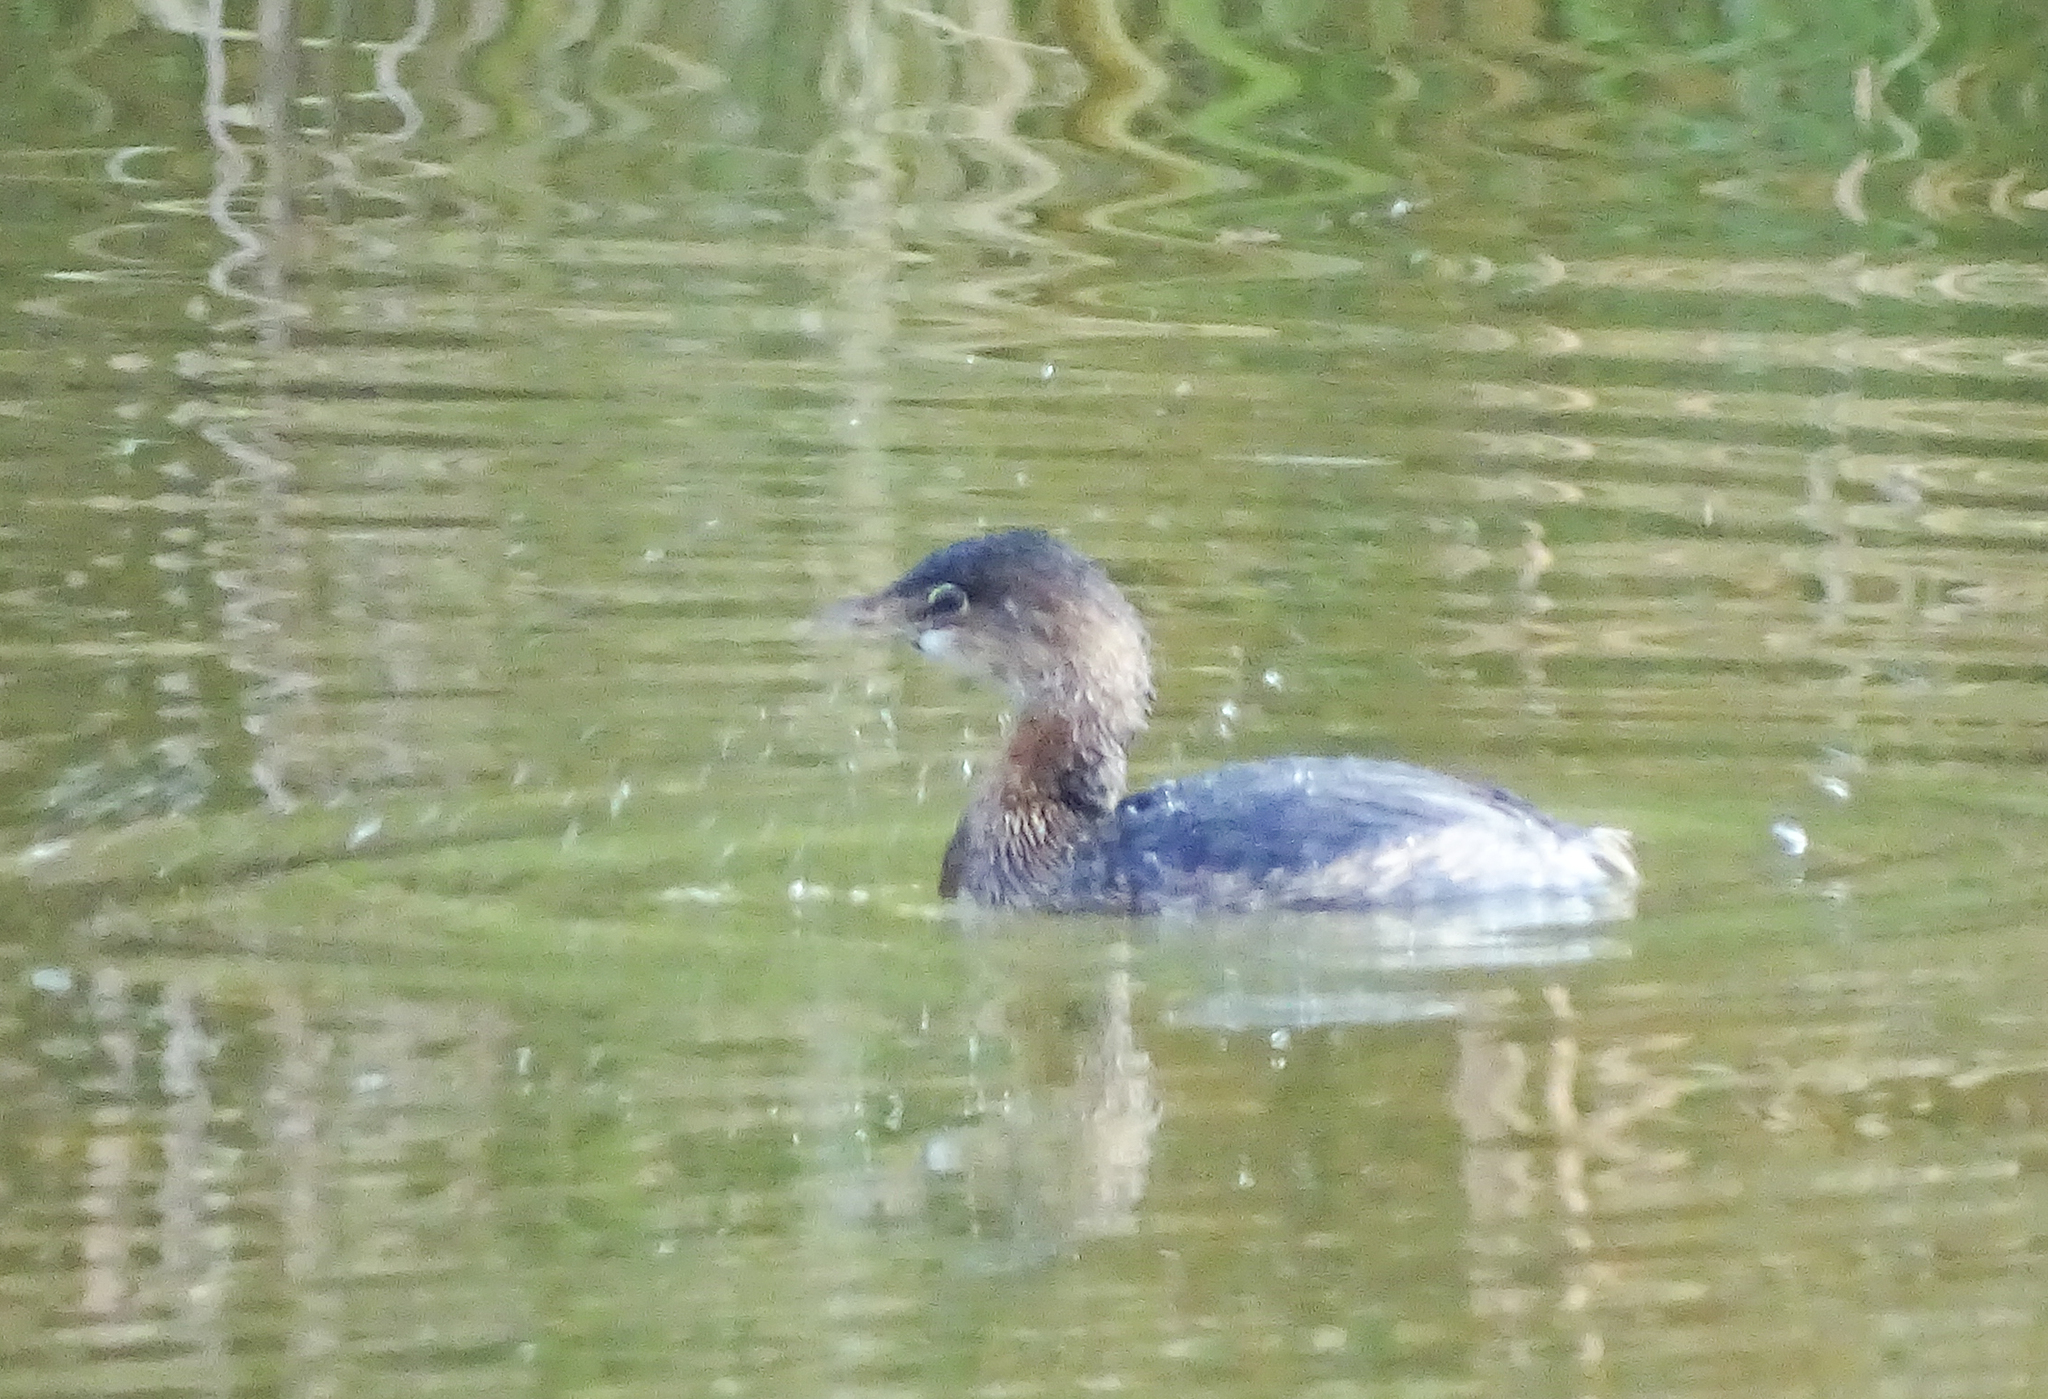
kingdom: Animalia
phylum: Chordata
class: Aves
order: Podicipediformes
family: Podicipedidae
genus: Podilymbus
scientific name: Podilymbus podiceps
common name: Pied-billed grebe
